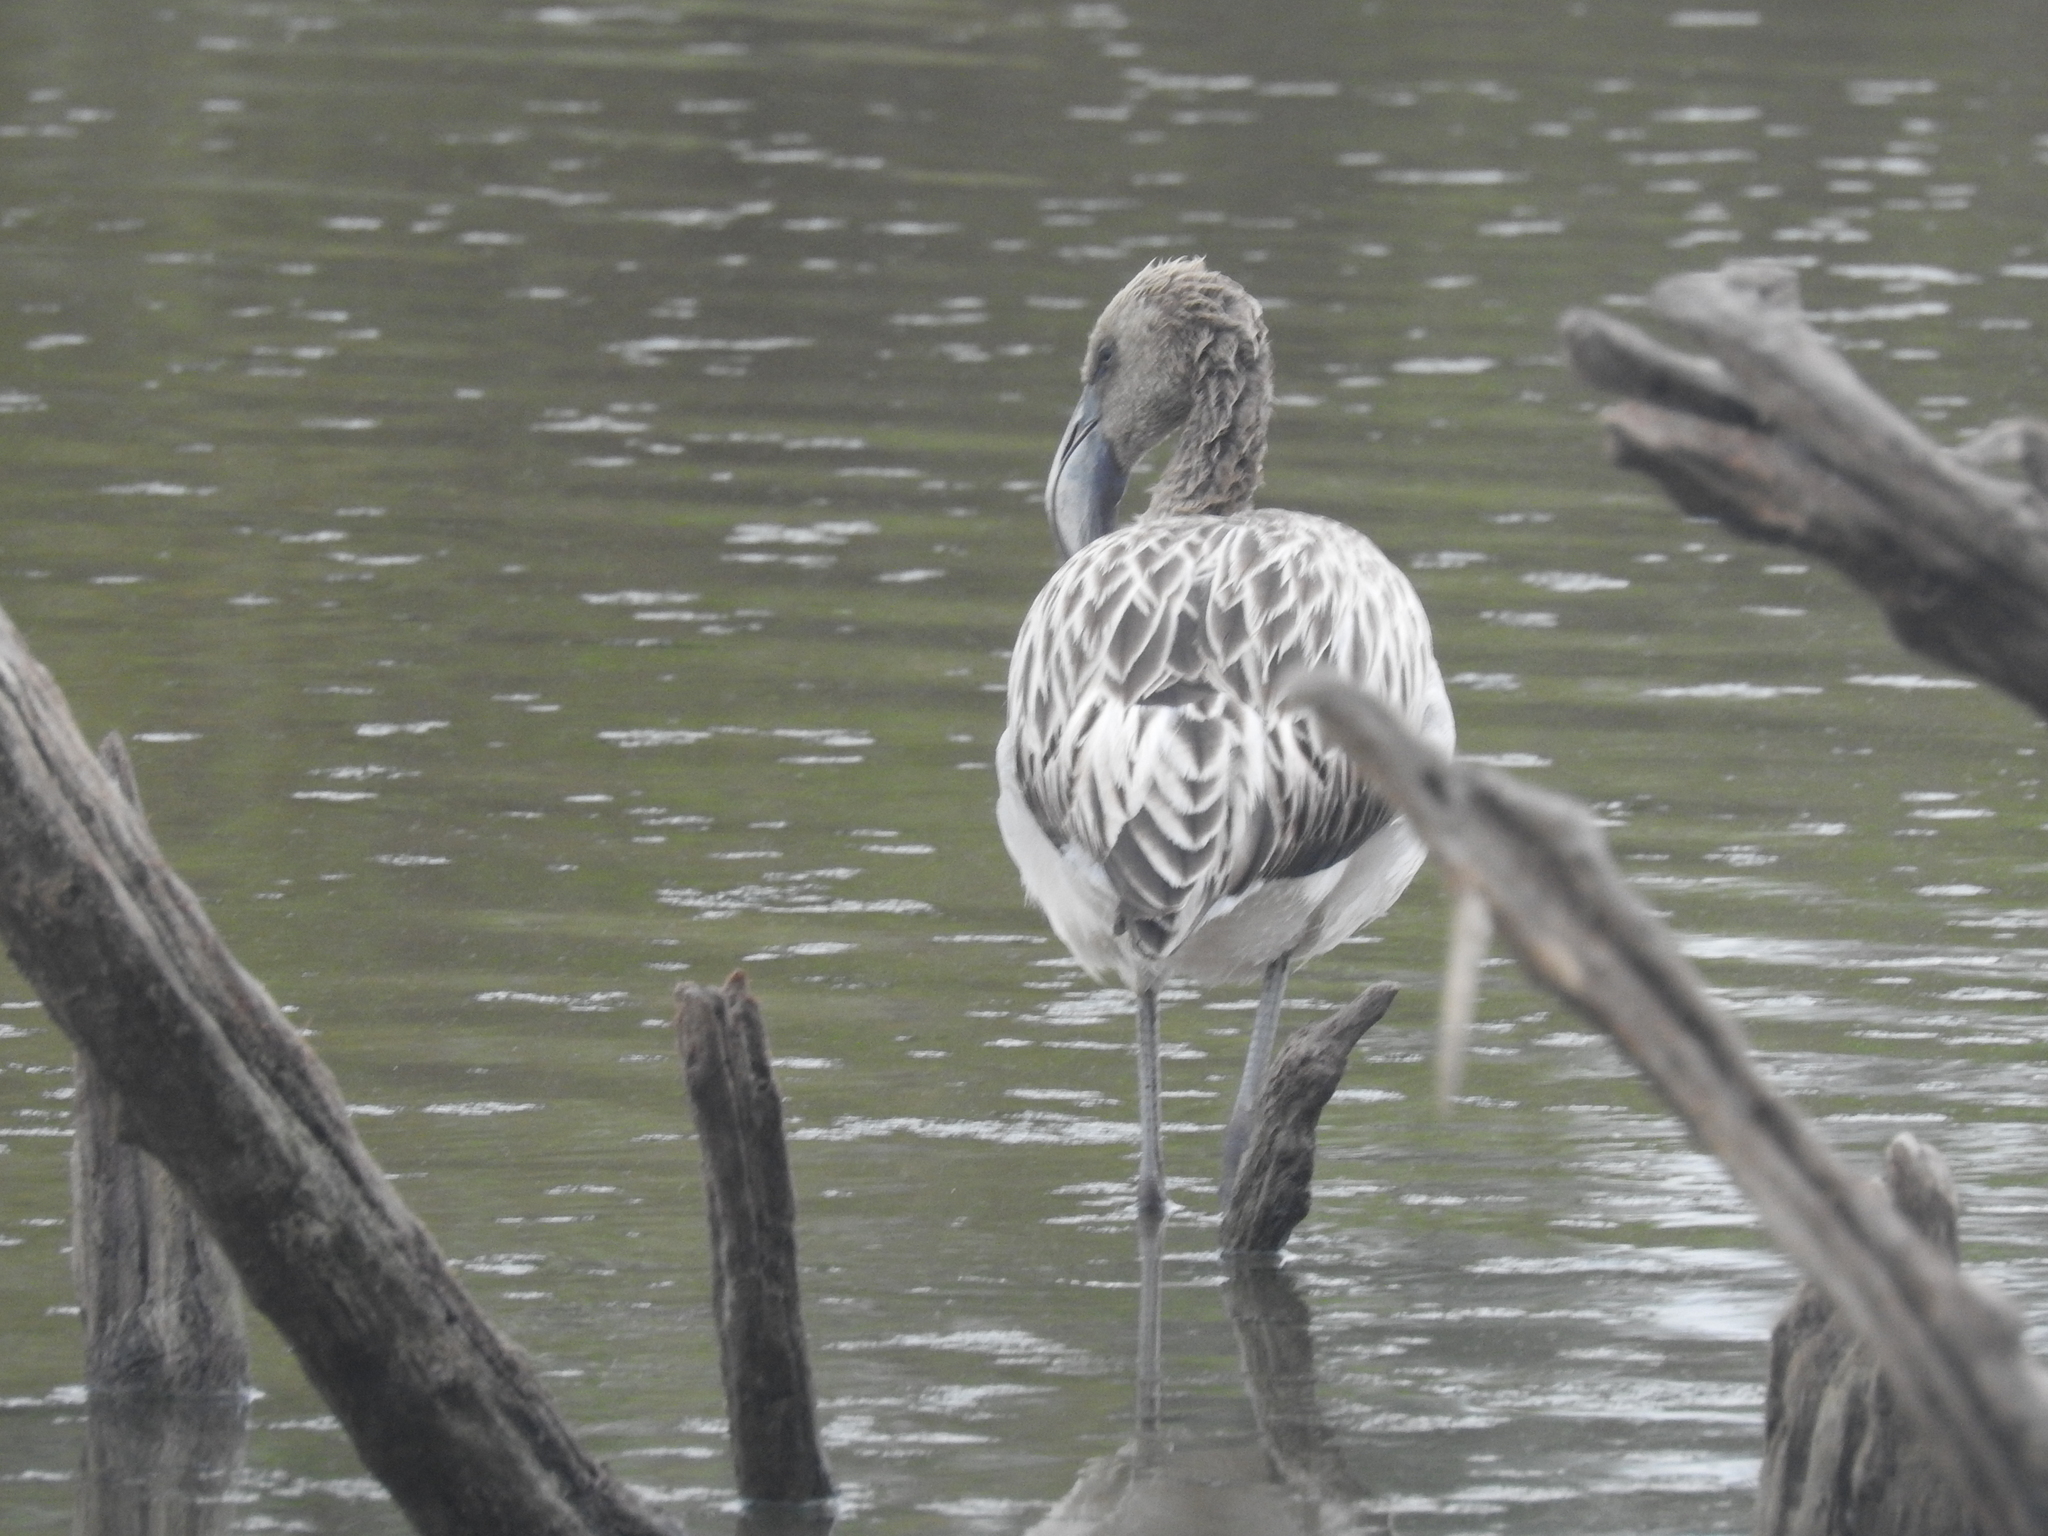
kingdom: Animalia
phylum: Chordata
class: Aves
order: Phoenicopteriformes
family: Phoenicopteridae
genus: Phoenicopterus
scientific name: Phoenicopterus chilensis
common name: Chilean flamingo
